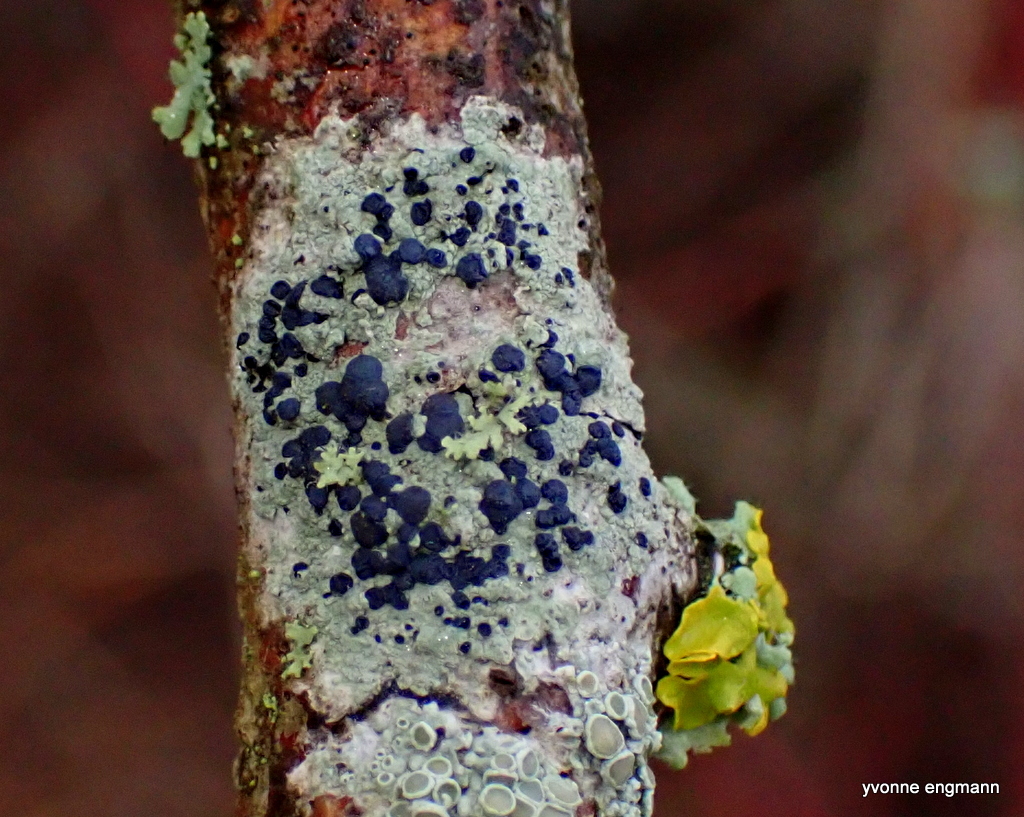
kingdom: Fungi
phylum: Ascomycota
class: Lecanoromycetes
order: Lecanorales
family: Lecanoraceae
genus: Lecidella
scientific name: Lecidella elaeochroma
